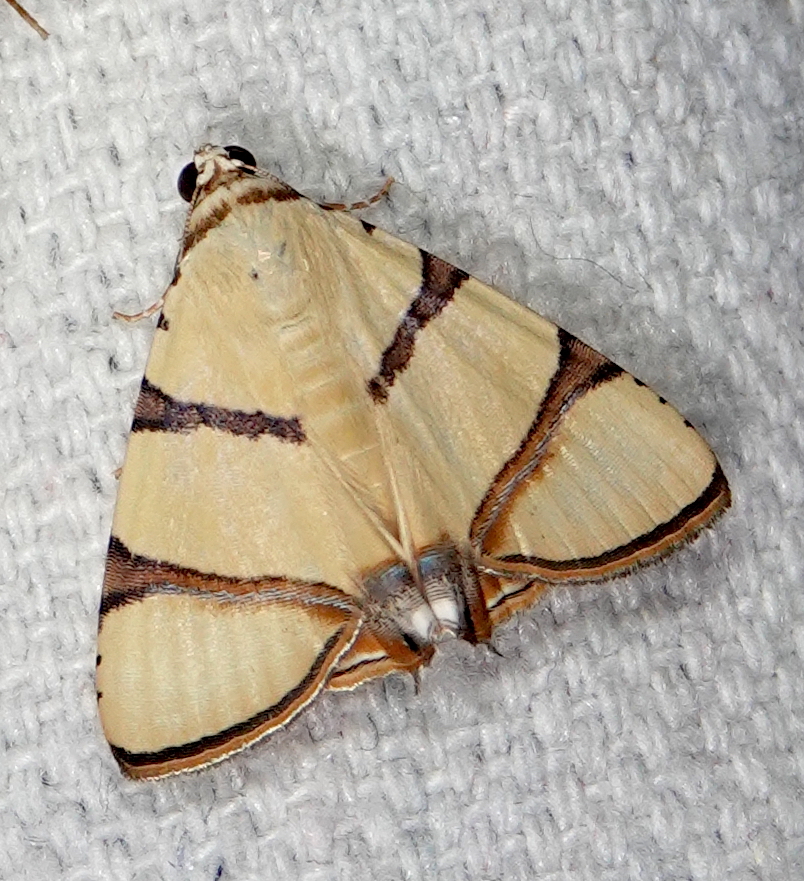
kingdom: Animalia
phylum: Arthropoda
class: Insecta
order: Lepidoptera
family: Erebidae
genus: Eulepidotis
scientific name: Eulepidotis affinis
